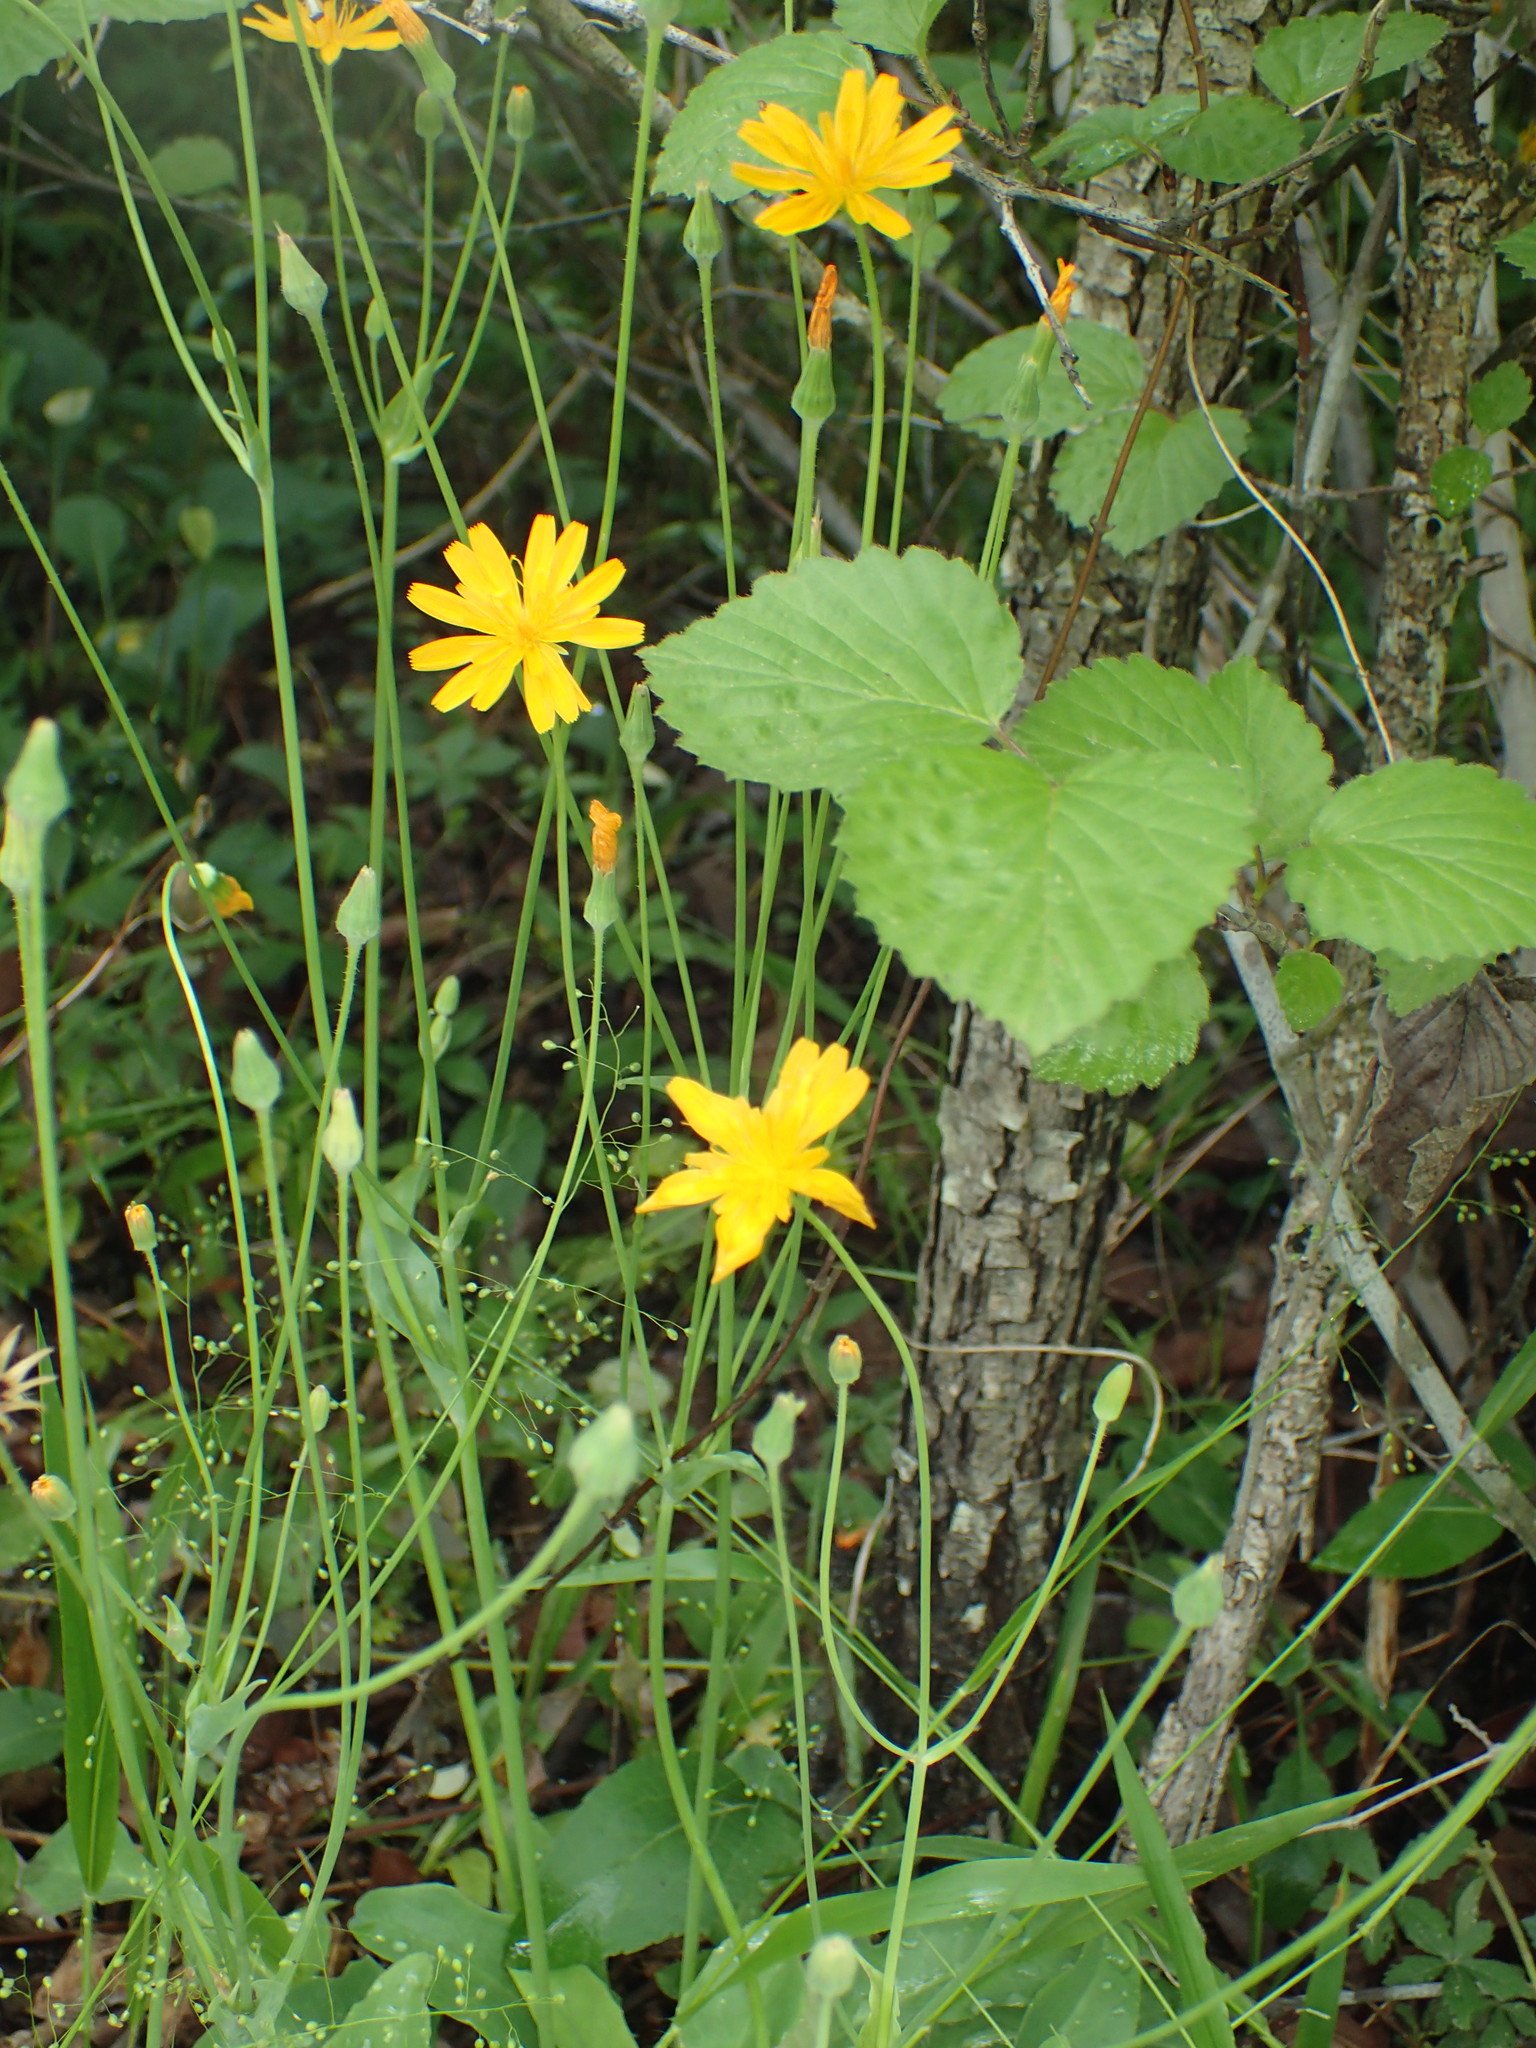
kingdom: Plantae
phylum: Tracheophyta
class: Magnoliopsida
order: Asterales
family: Asteraceae
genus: Krigia
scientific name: Krigia biflora
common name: Orange dwarf-dandelion
